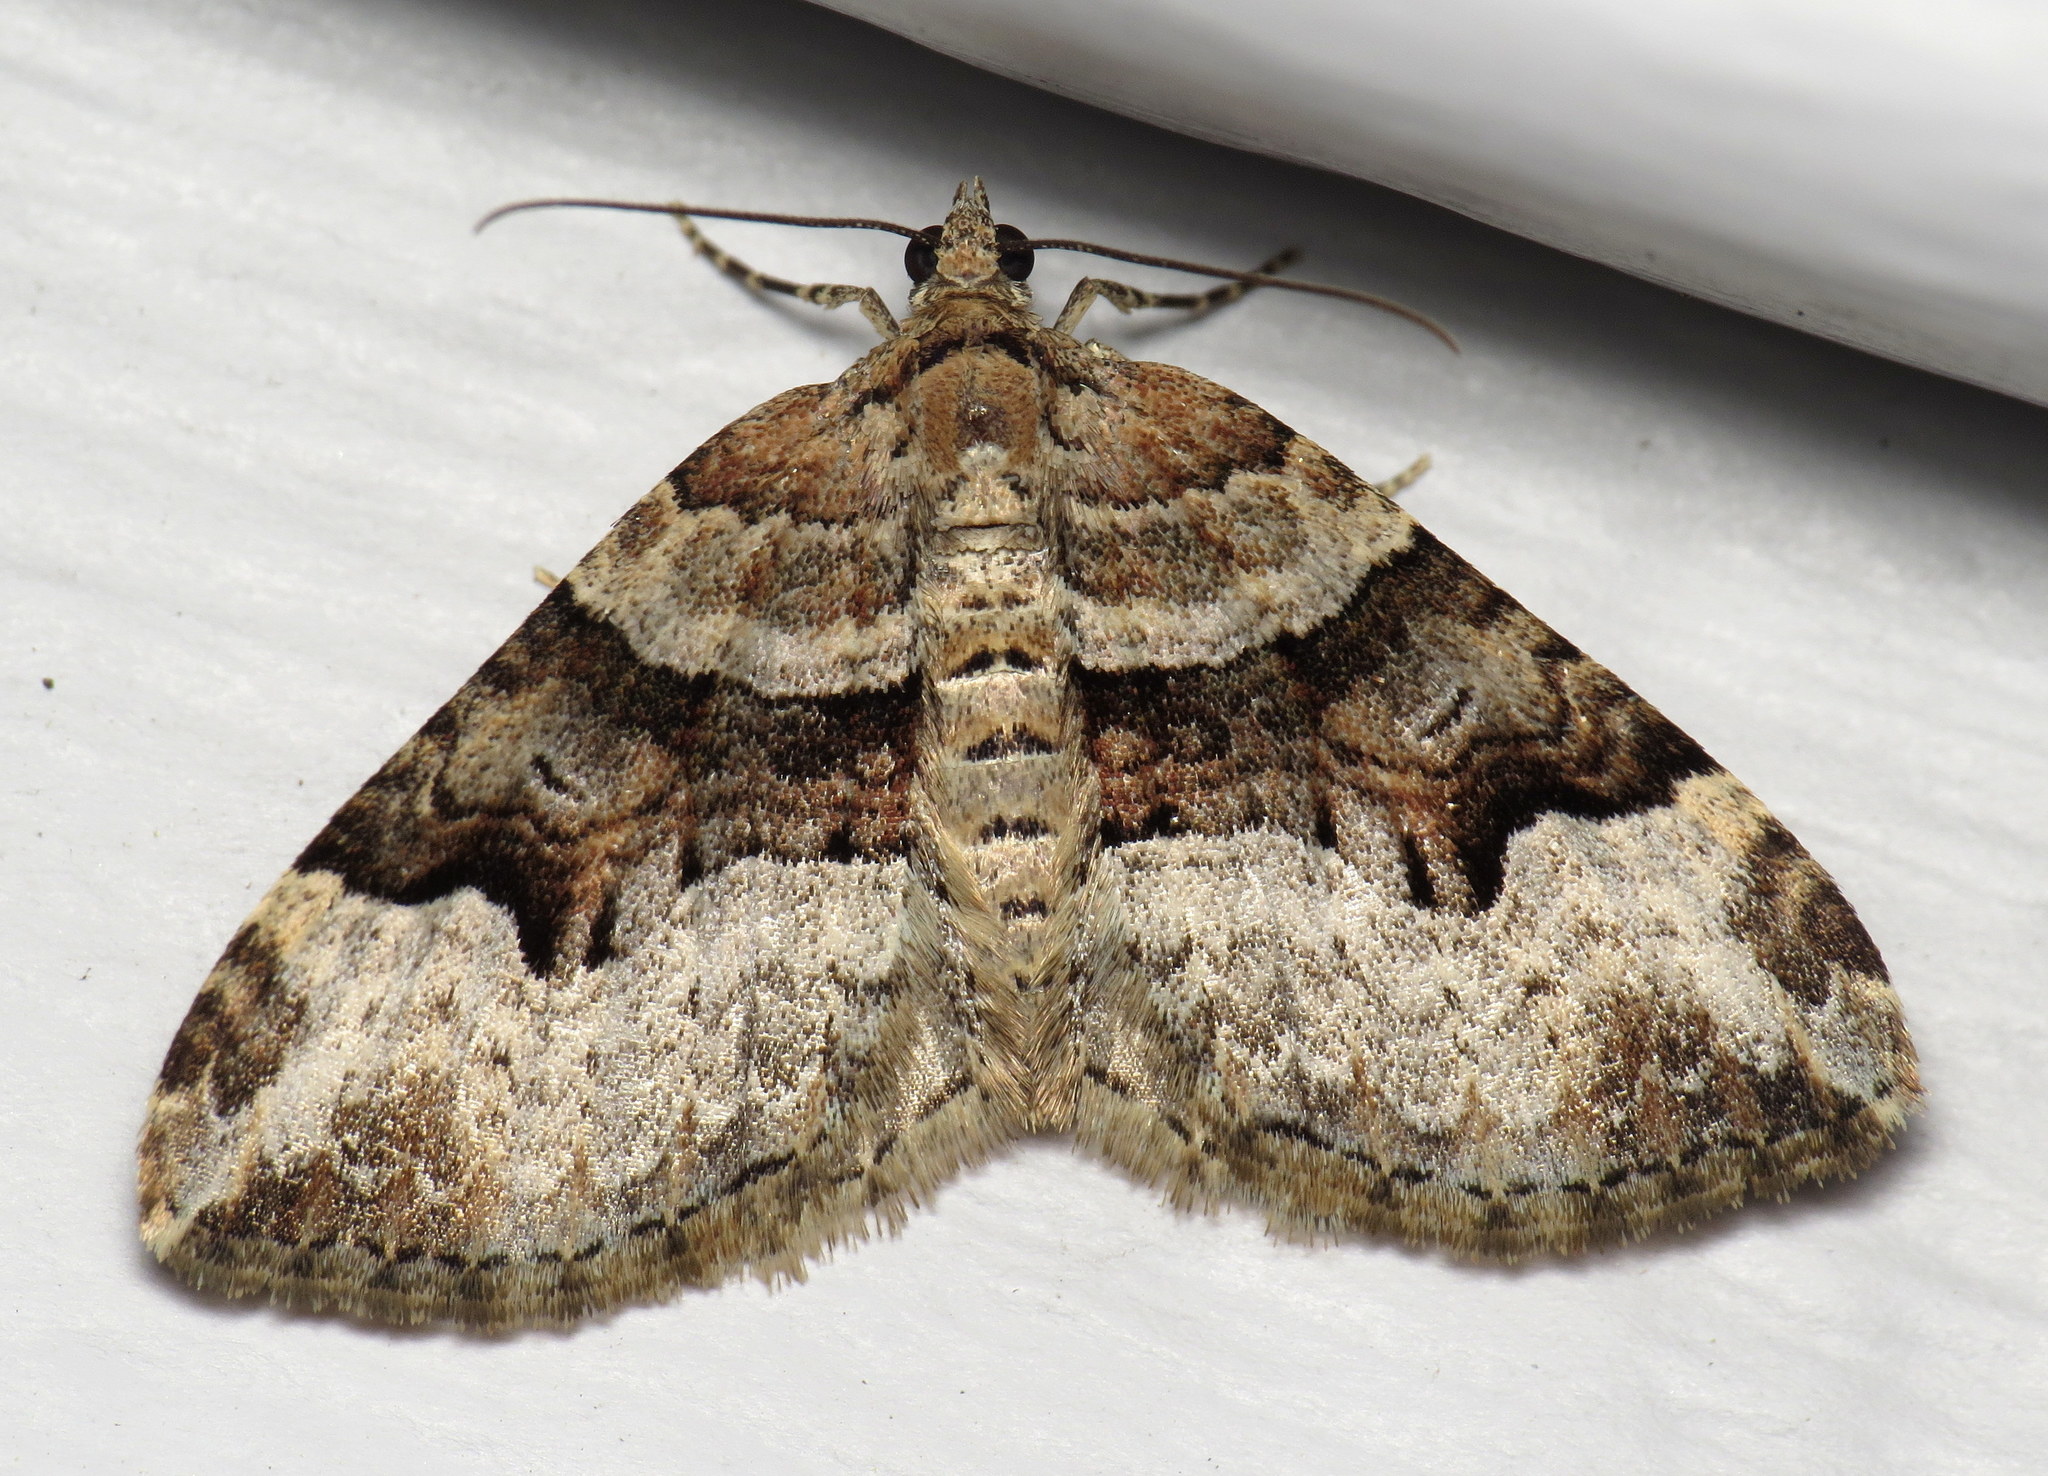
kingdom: Animalia
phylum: Arthropoda
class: Insecta
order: Lepidoptera
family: Geometridae
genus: Xanthorhoe
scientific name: Xanthorhoe lacustrata
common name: Toothed brown carpet
